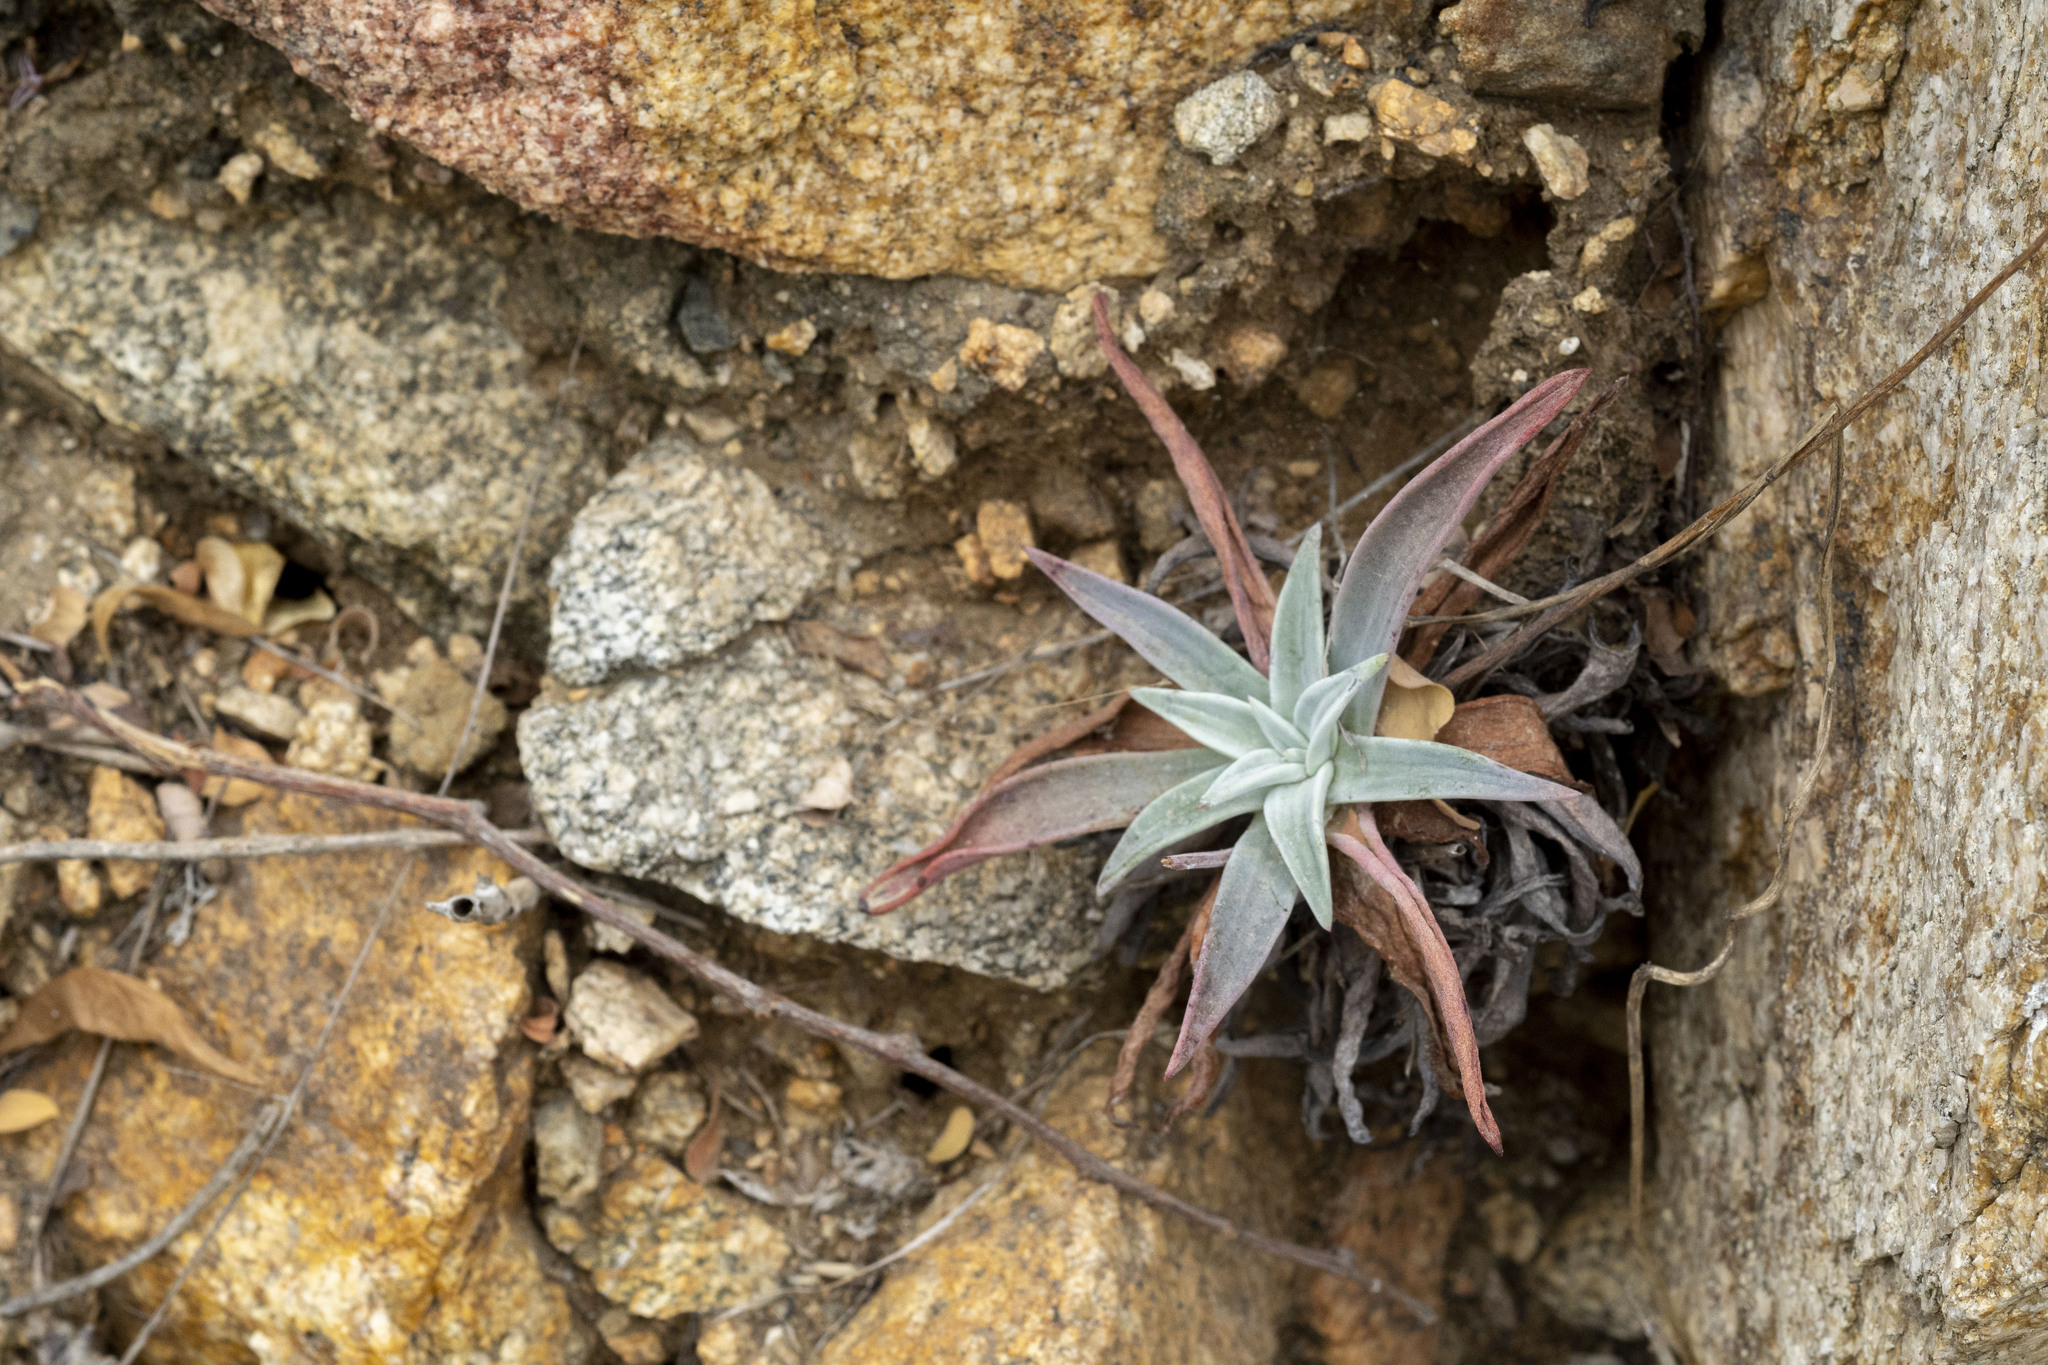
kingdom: Plantae
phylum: Tracheophyta
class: Magnoliopsida
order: Saxifragales
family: Crassulaceae
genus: Dudleya
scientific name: Dudleya nubigena
